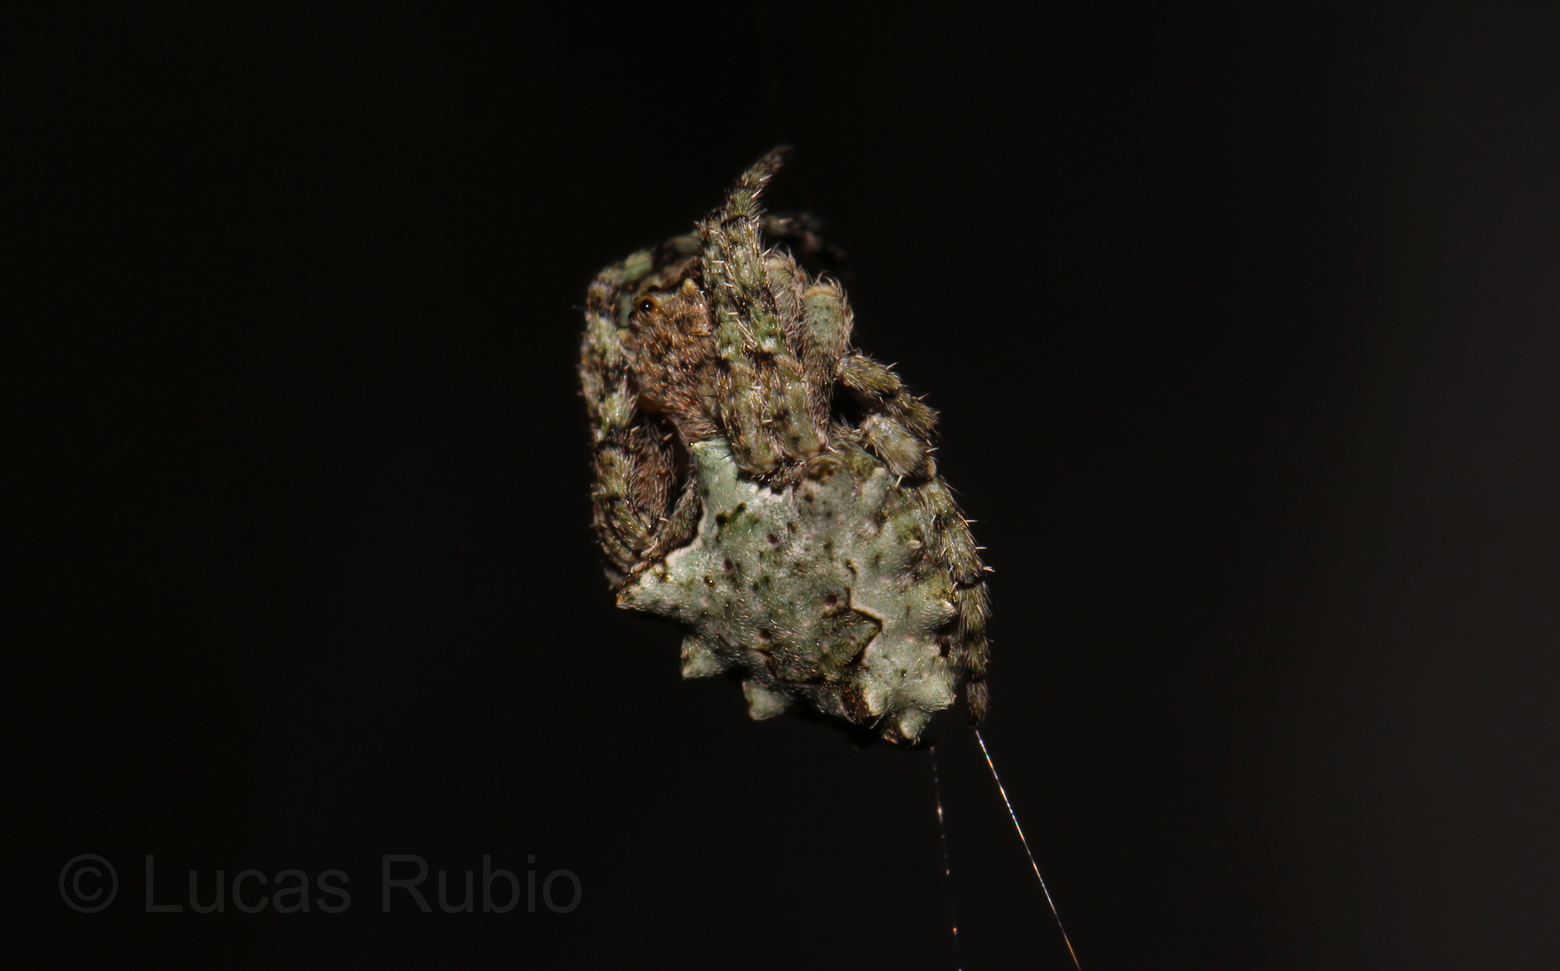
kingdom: Animalia
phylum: Arthropoda
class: Arachnida
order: Araneae
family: Araneidae
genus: Parawixia
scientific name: Parawixia audax
